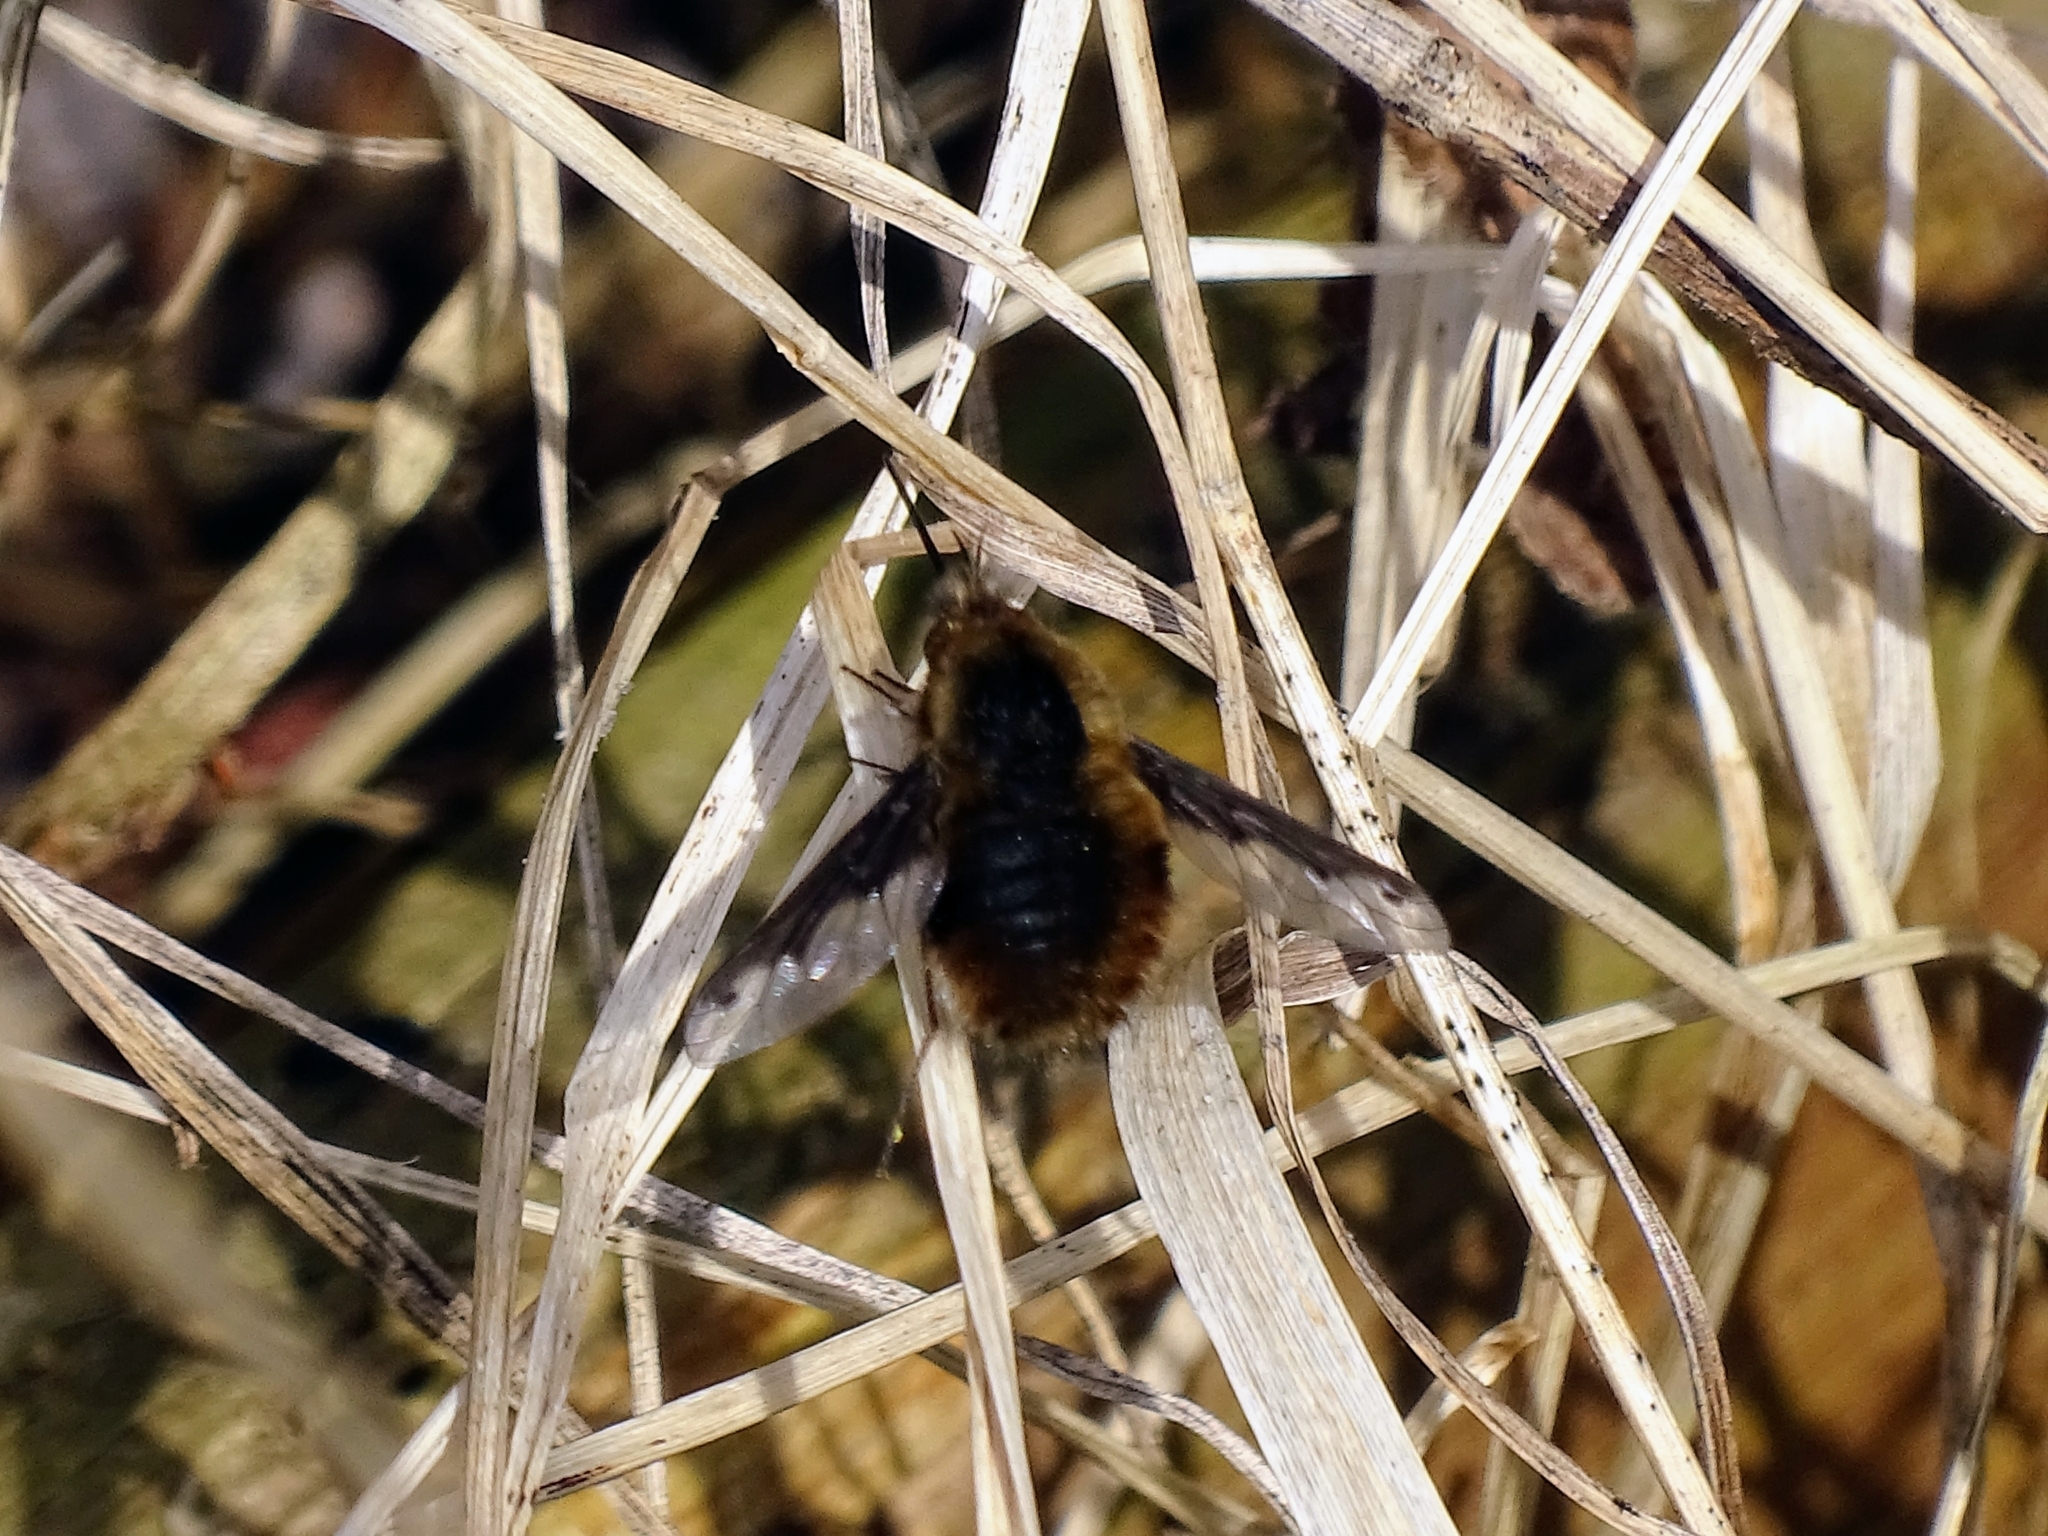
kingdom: Animalia
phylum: Arthropoda
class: Insecta
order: Diptera
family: Bombyliidae
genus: Bombylius
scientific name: Bombylius major
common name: Bee fly
